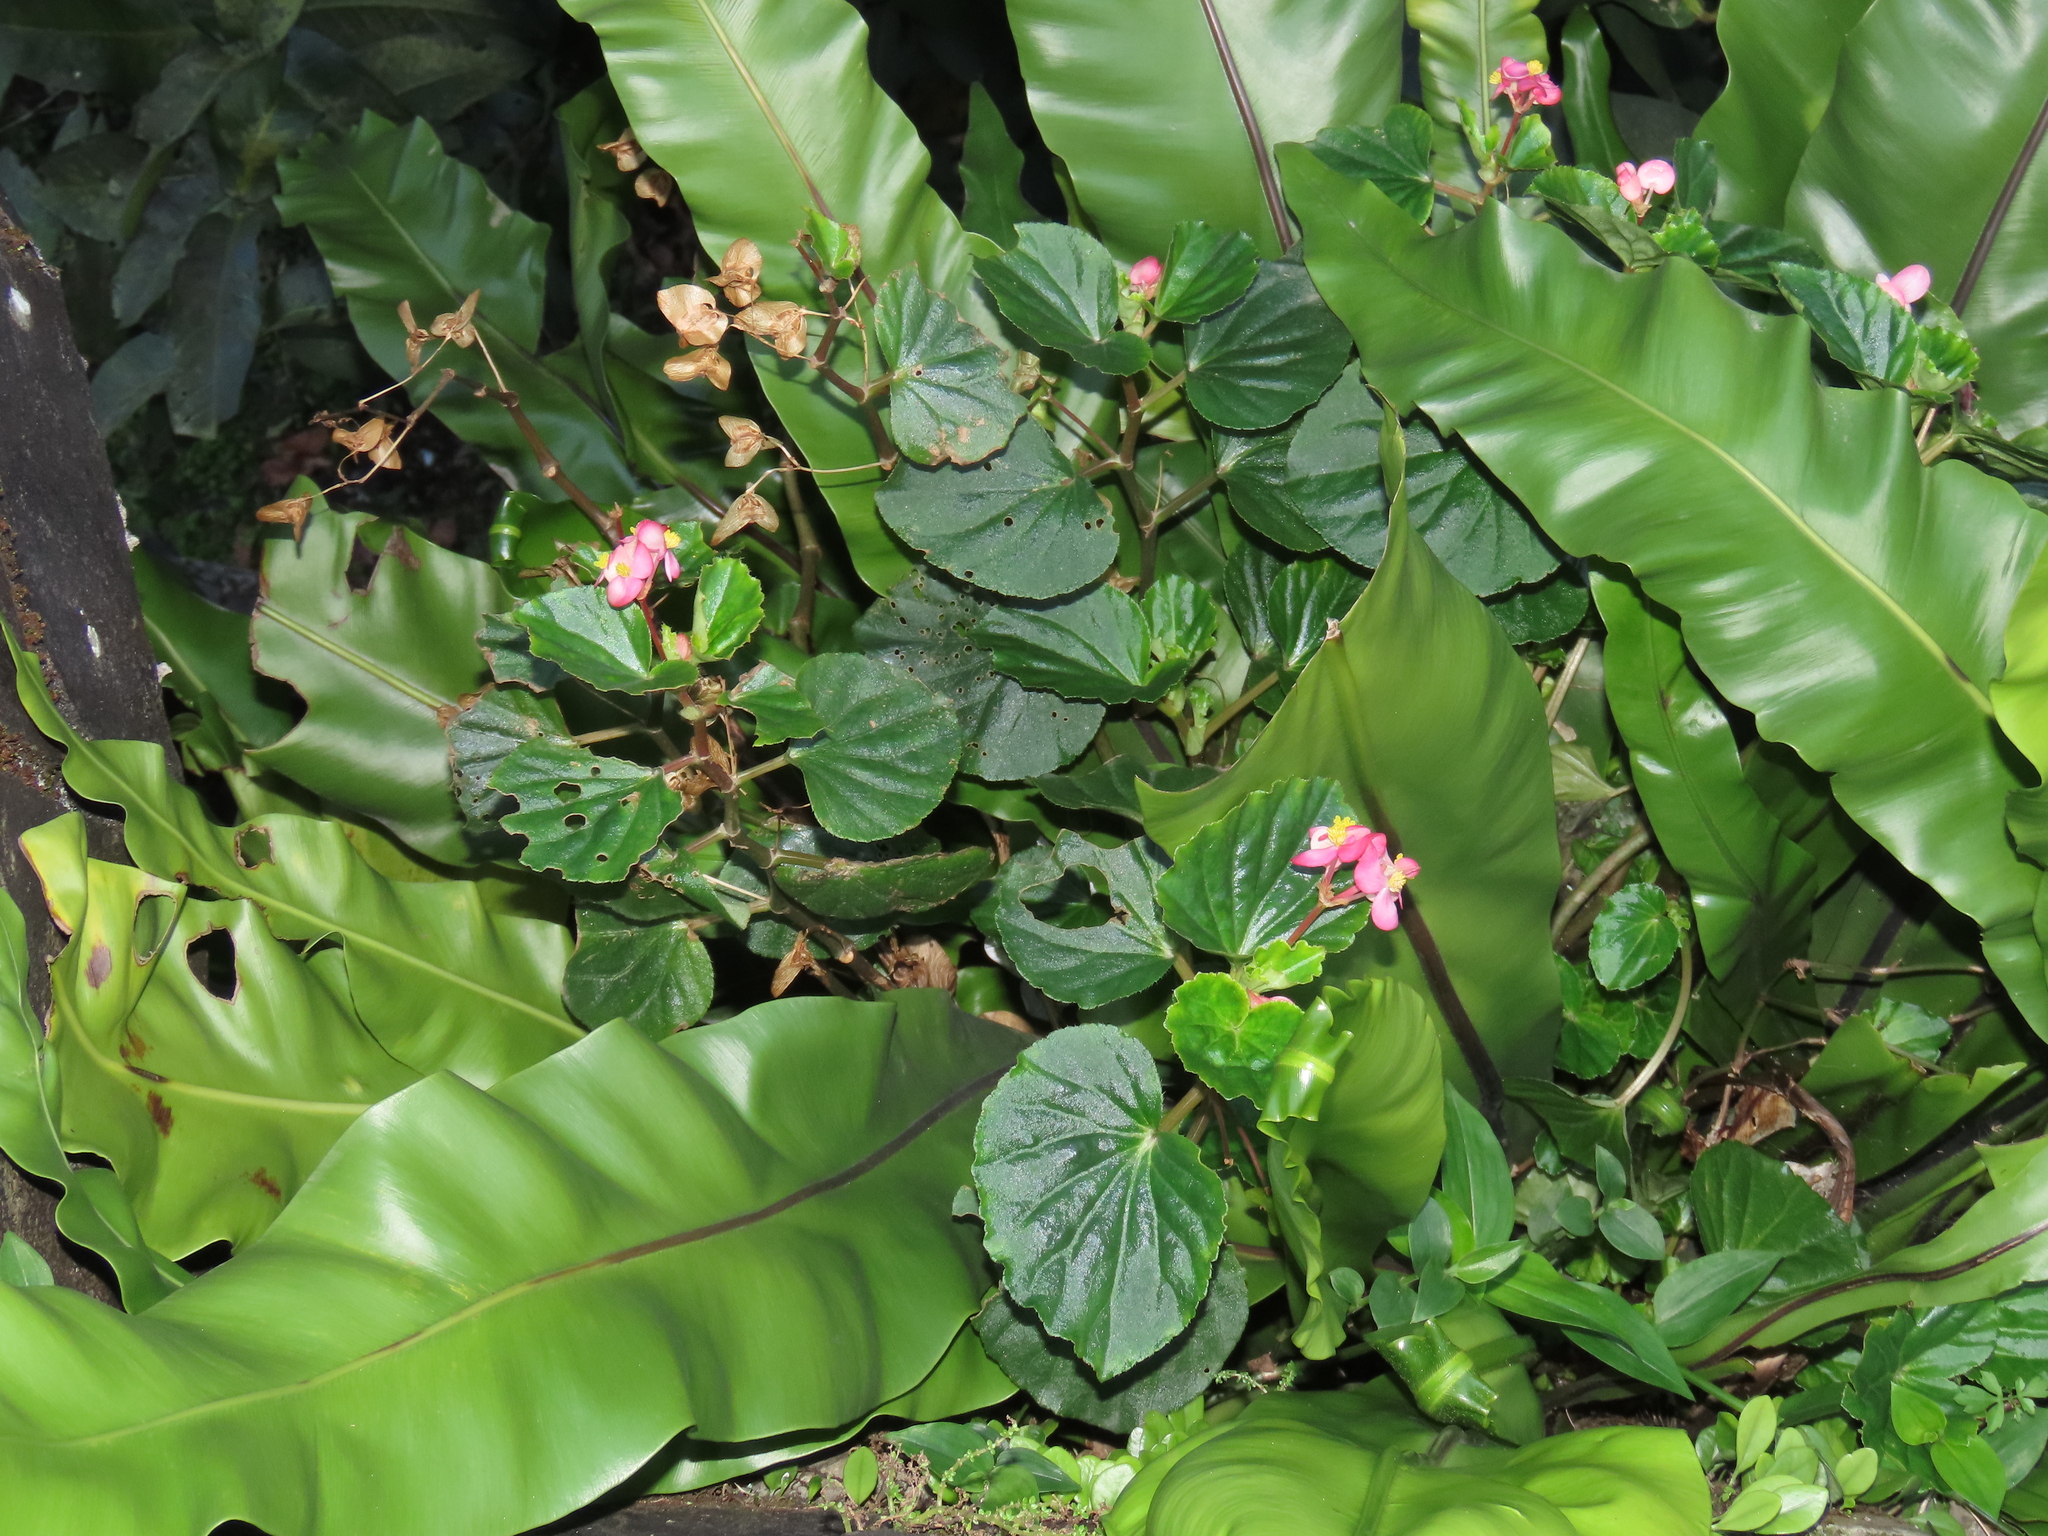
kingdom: Plantae
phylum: Tracheophyta
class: Magnoliopsida
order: Cucurbitales
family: Begoniaceae
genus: Begonia
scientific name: Begonia cucullata
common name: Clubbed begonia
